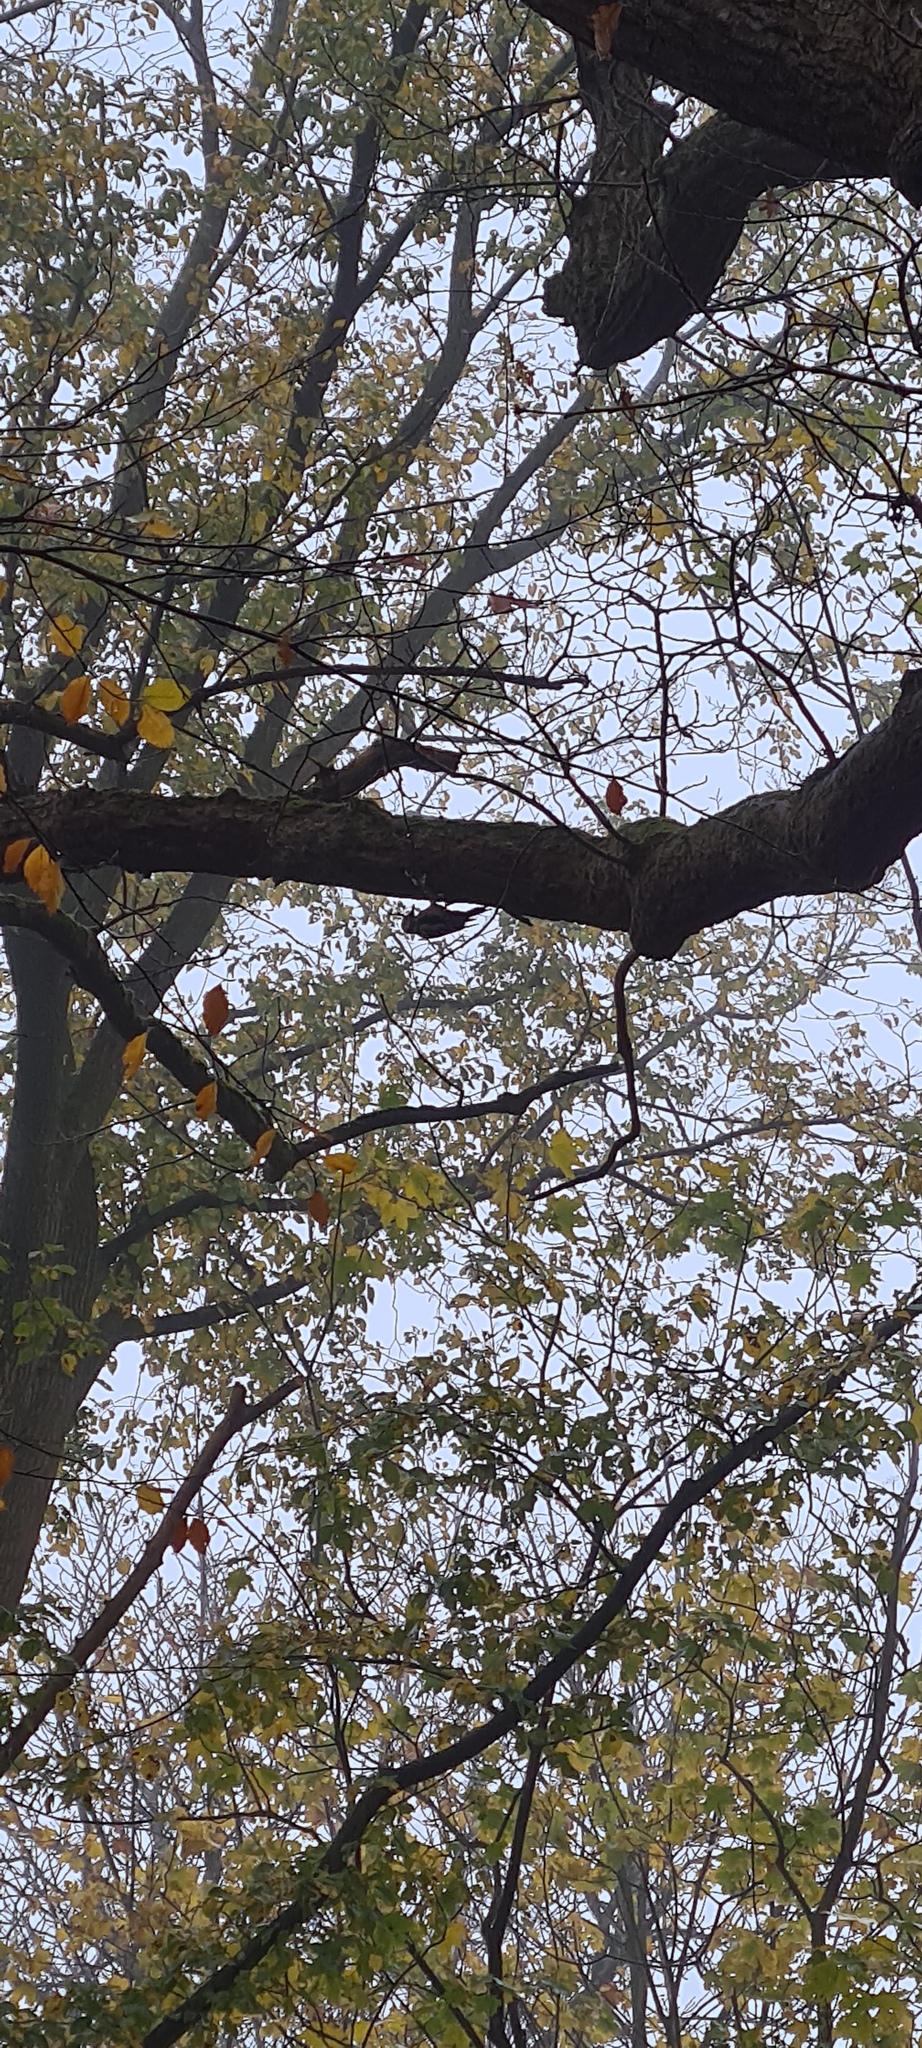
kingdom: Animalia
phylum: Chordata
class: Aves
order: Piciformes
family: Picidae
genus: Dendrocopos
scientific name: Dendrocopos major
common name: Great spotted woodpecker
